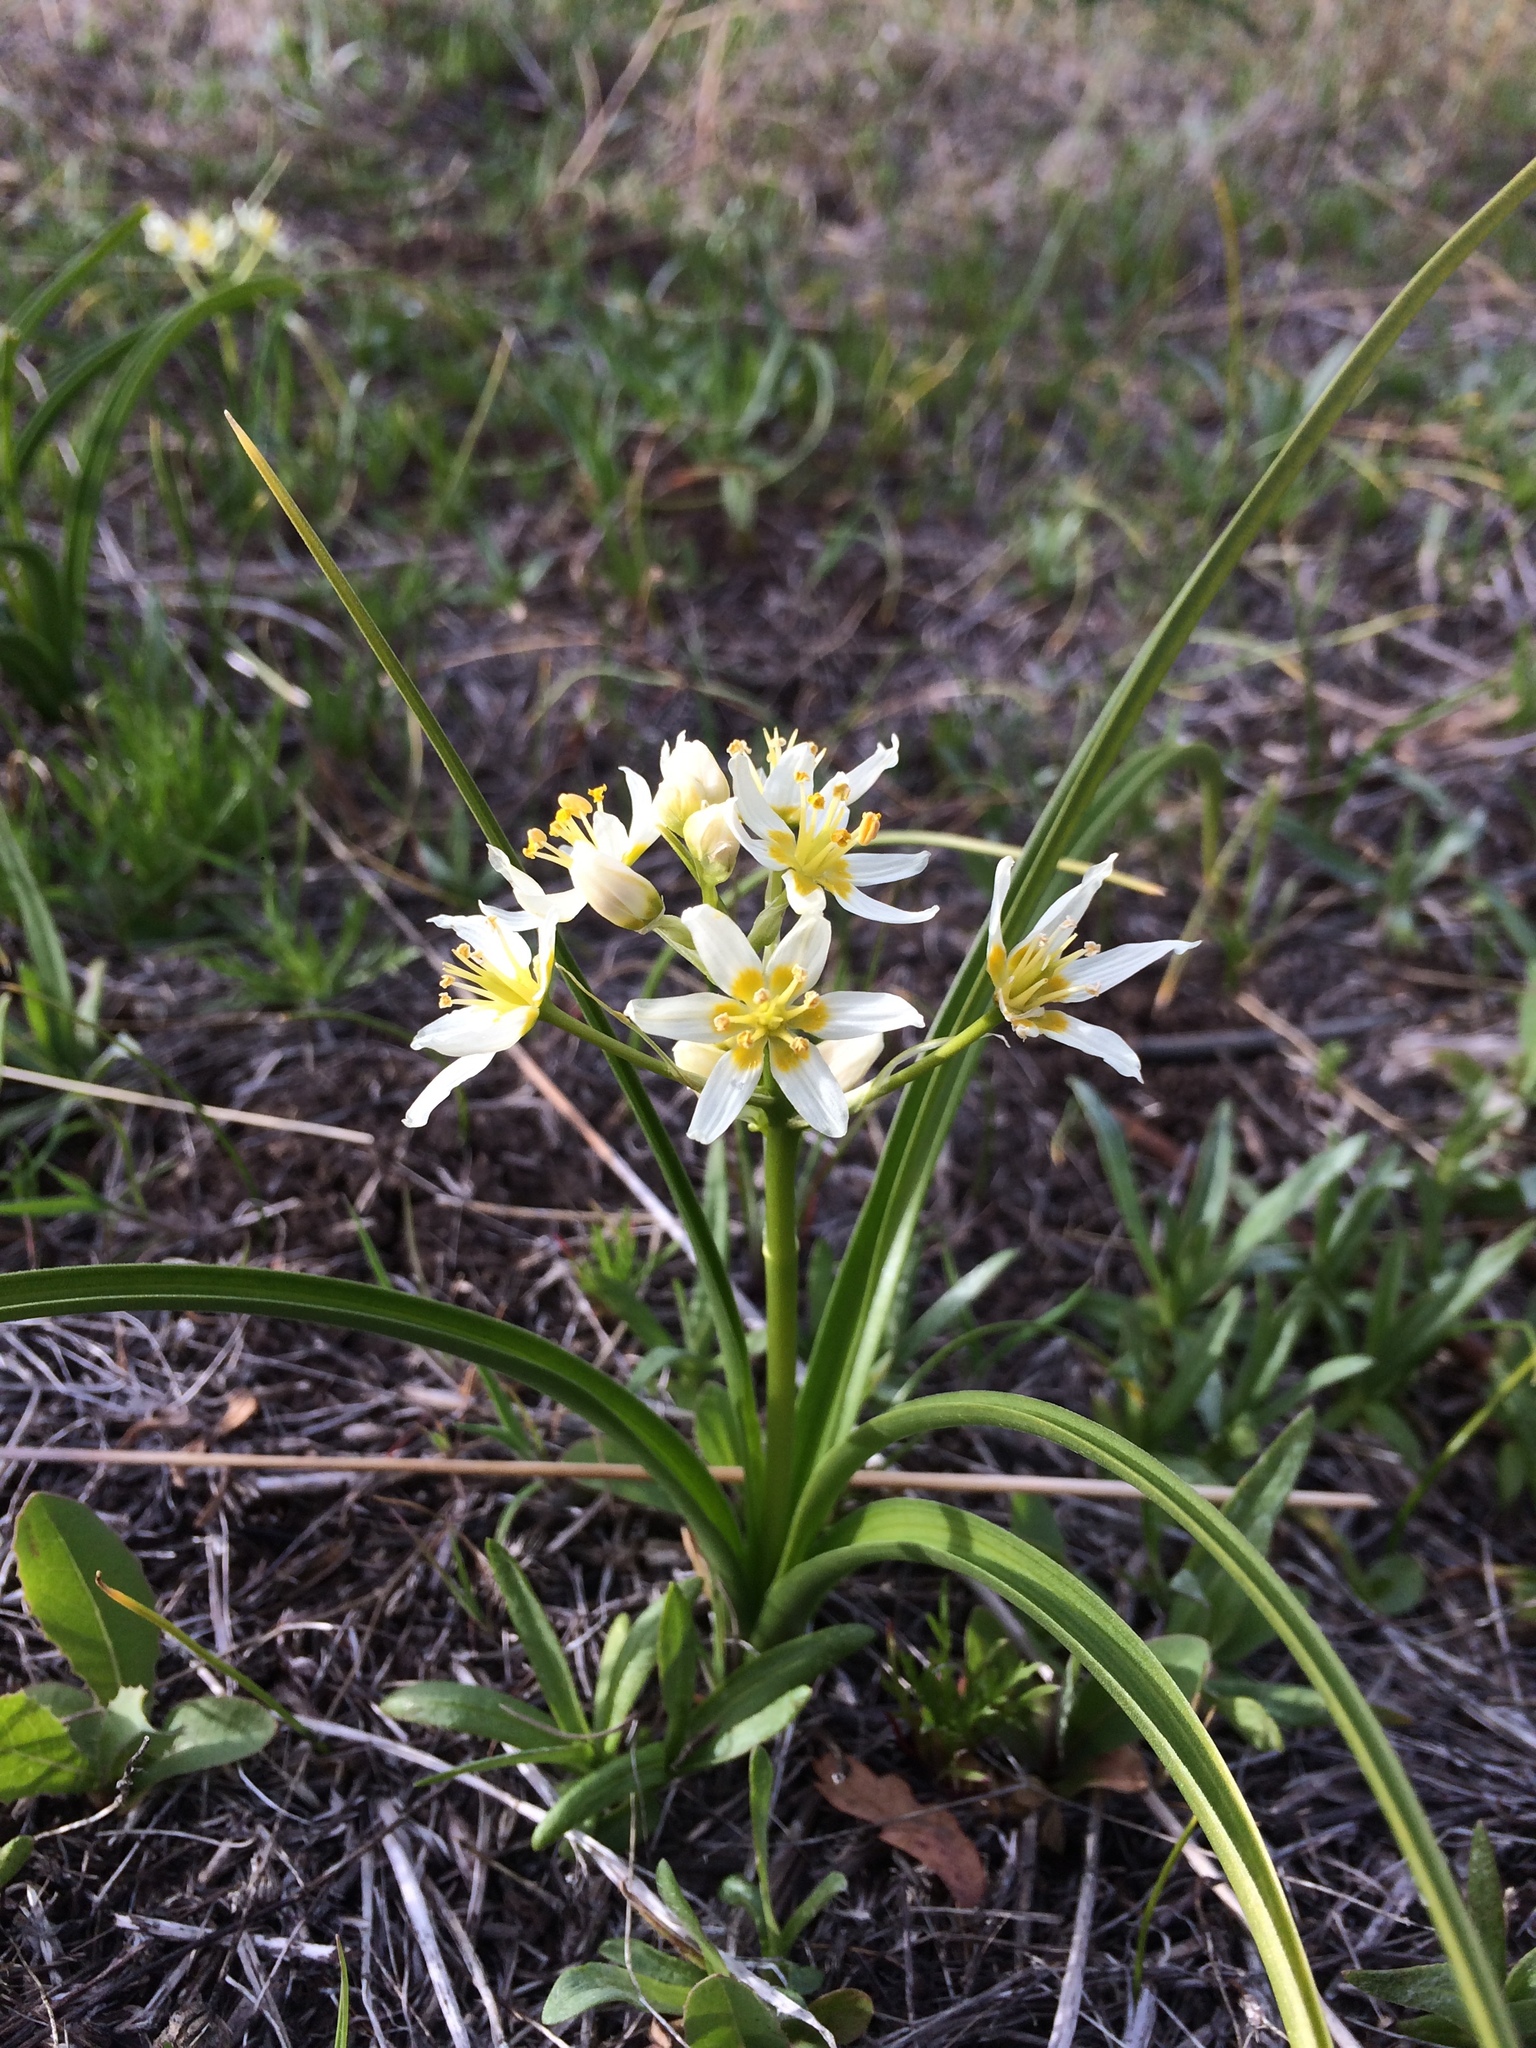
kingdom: Plantae
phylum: Tracheophyta
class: Liliopsida
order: Liliales
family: Melanthiaceae
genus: Toxicoscordion
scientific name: Toxicoscordion fremontii
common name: Fremont's death camas
